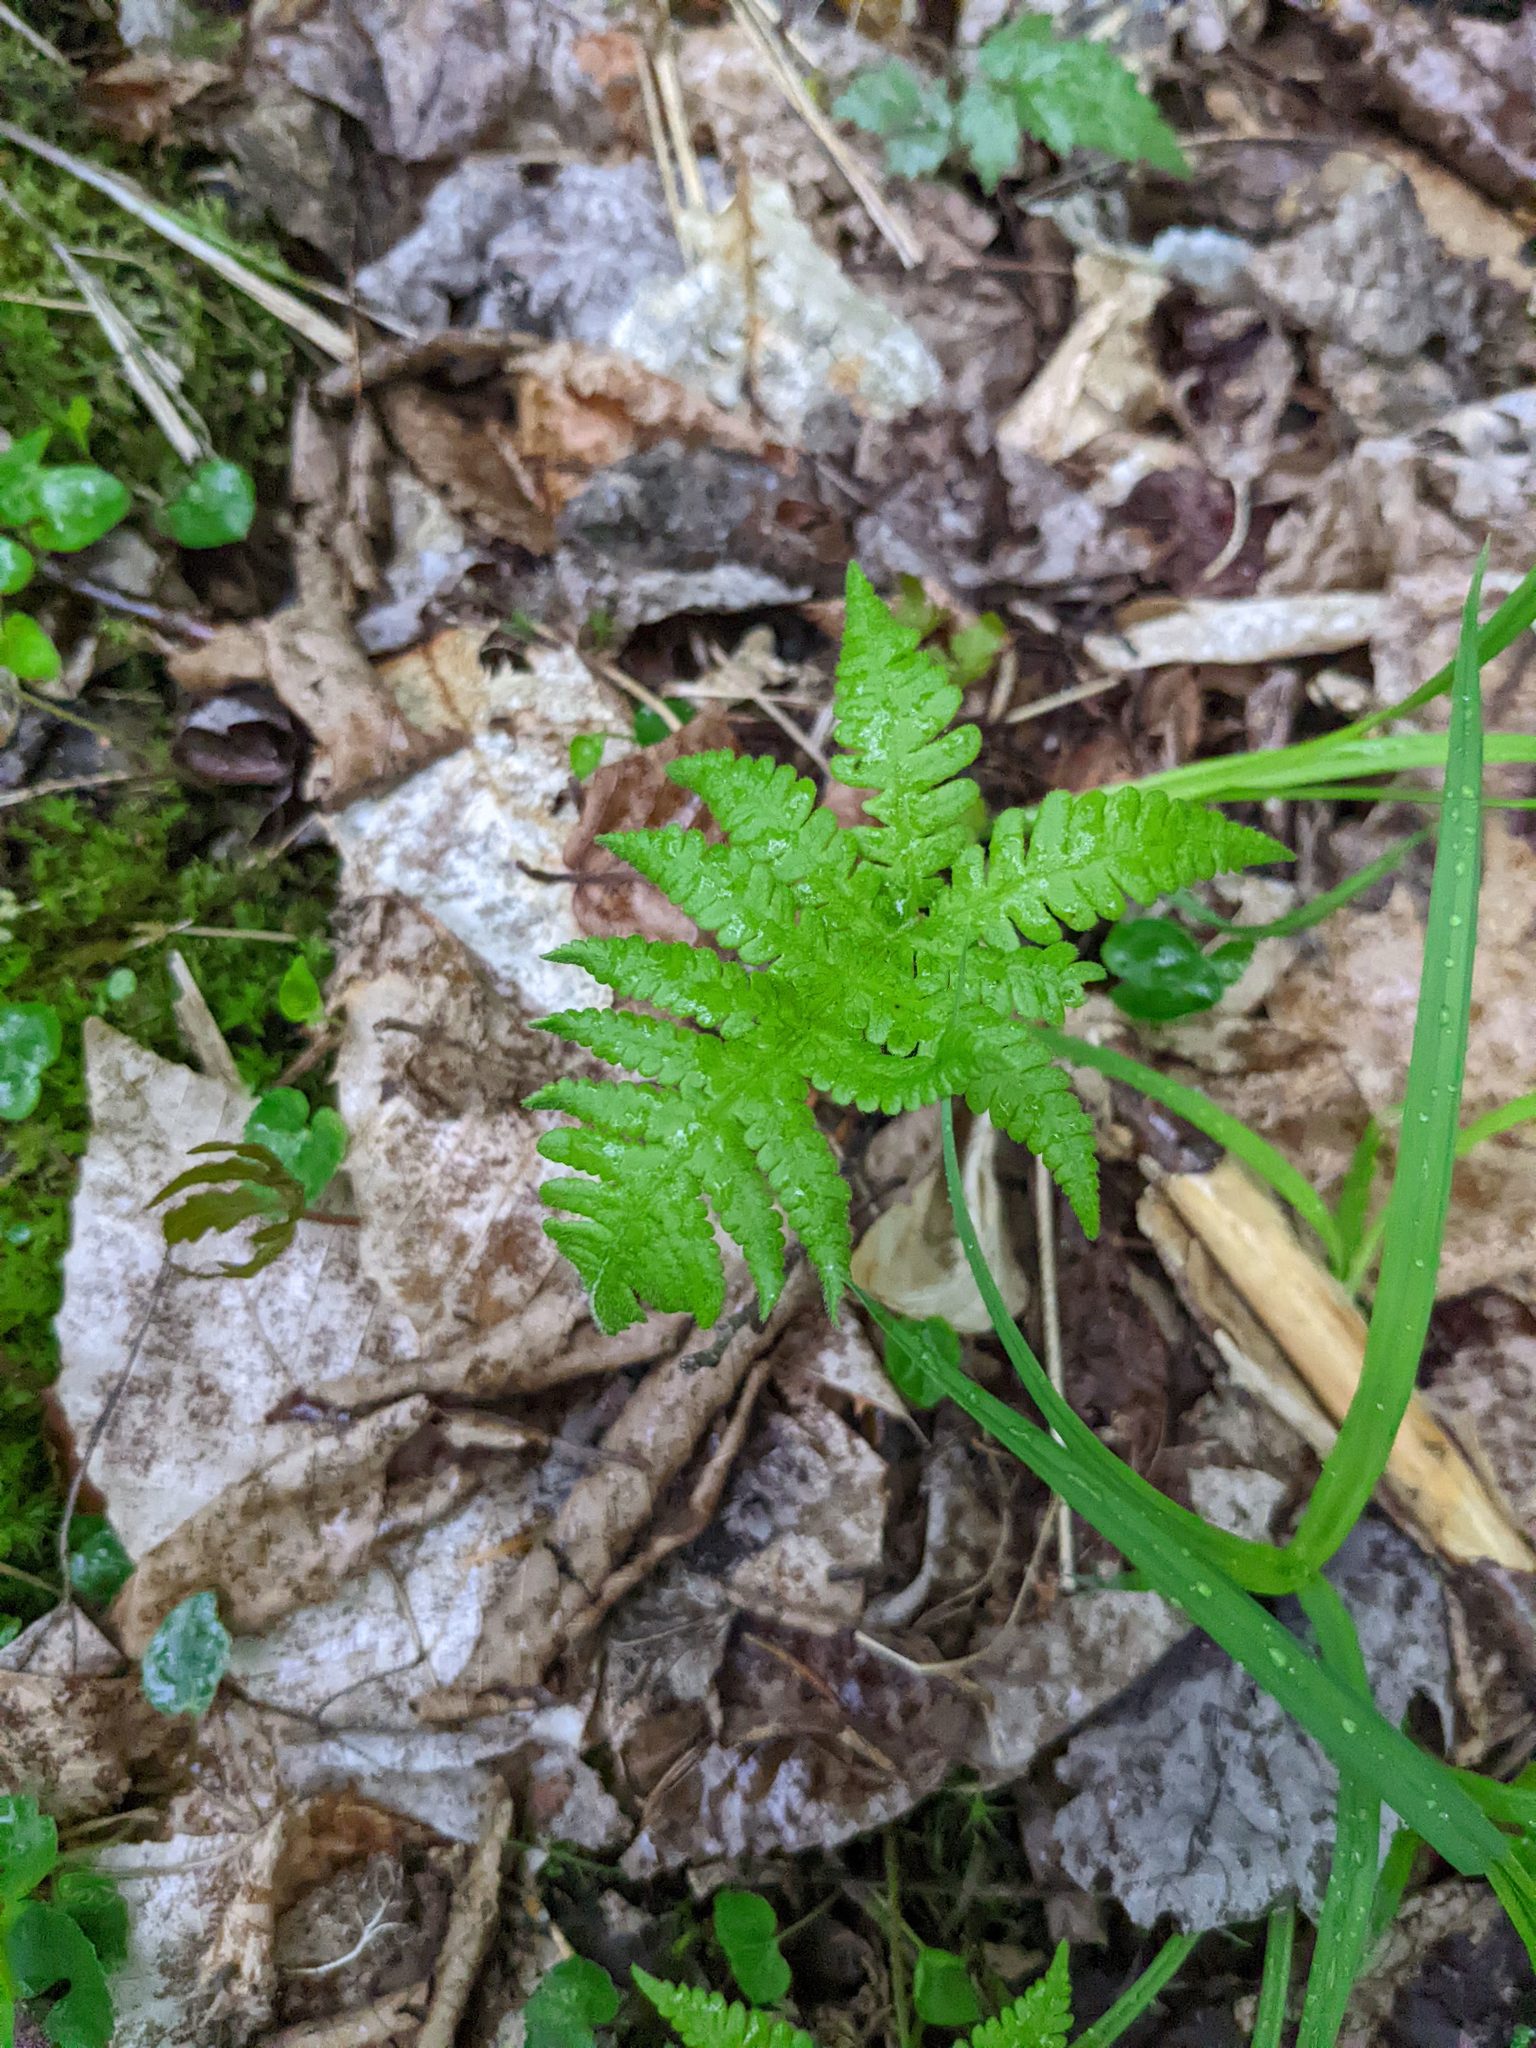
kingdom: Plantae
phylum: Tracheophyta
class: Polypodiopsida
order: Polypodiales
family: Thelypteridaceae
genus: Phegopteris
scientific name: Phegopteris connectilis
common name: Beech fern
